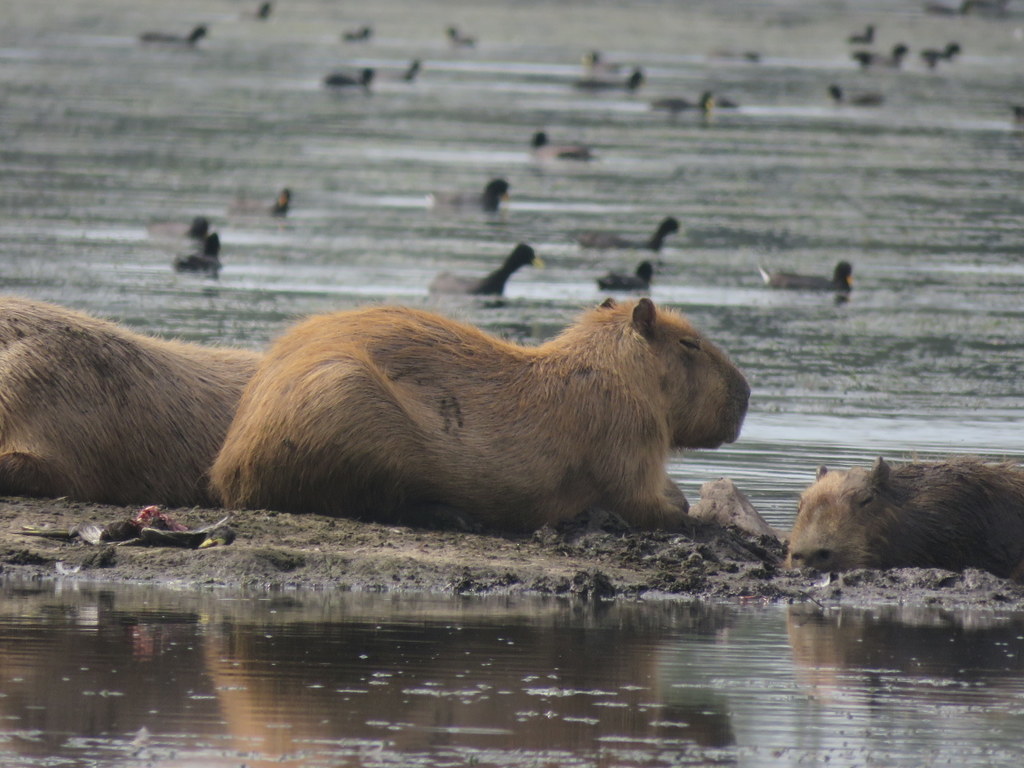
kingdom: Animalia
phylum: Chordata
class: Mammalia
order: Rodentia
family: Caviidae
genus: Hydrochoerus
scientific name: Hydrochoerus hydrochaeris
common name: Capybara
